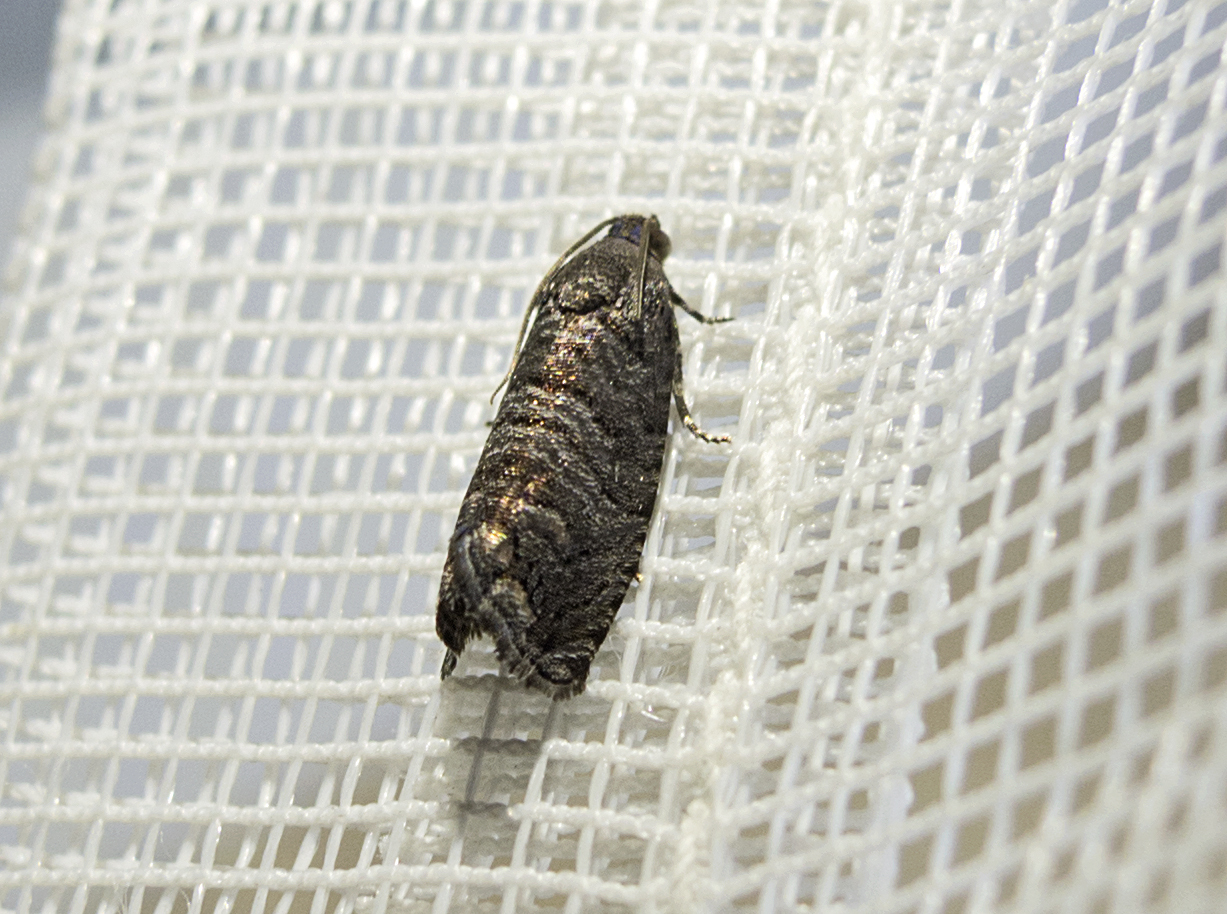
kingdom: Animalia
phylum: Arthropoda
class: Insecta
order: Lepidoptera
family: Tortricidae
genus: Cydia
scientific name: Cydia pyrivora
